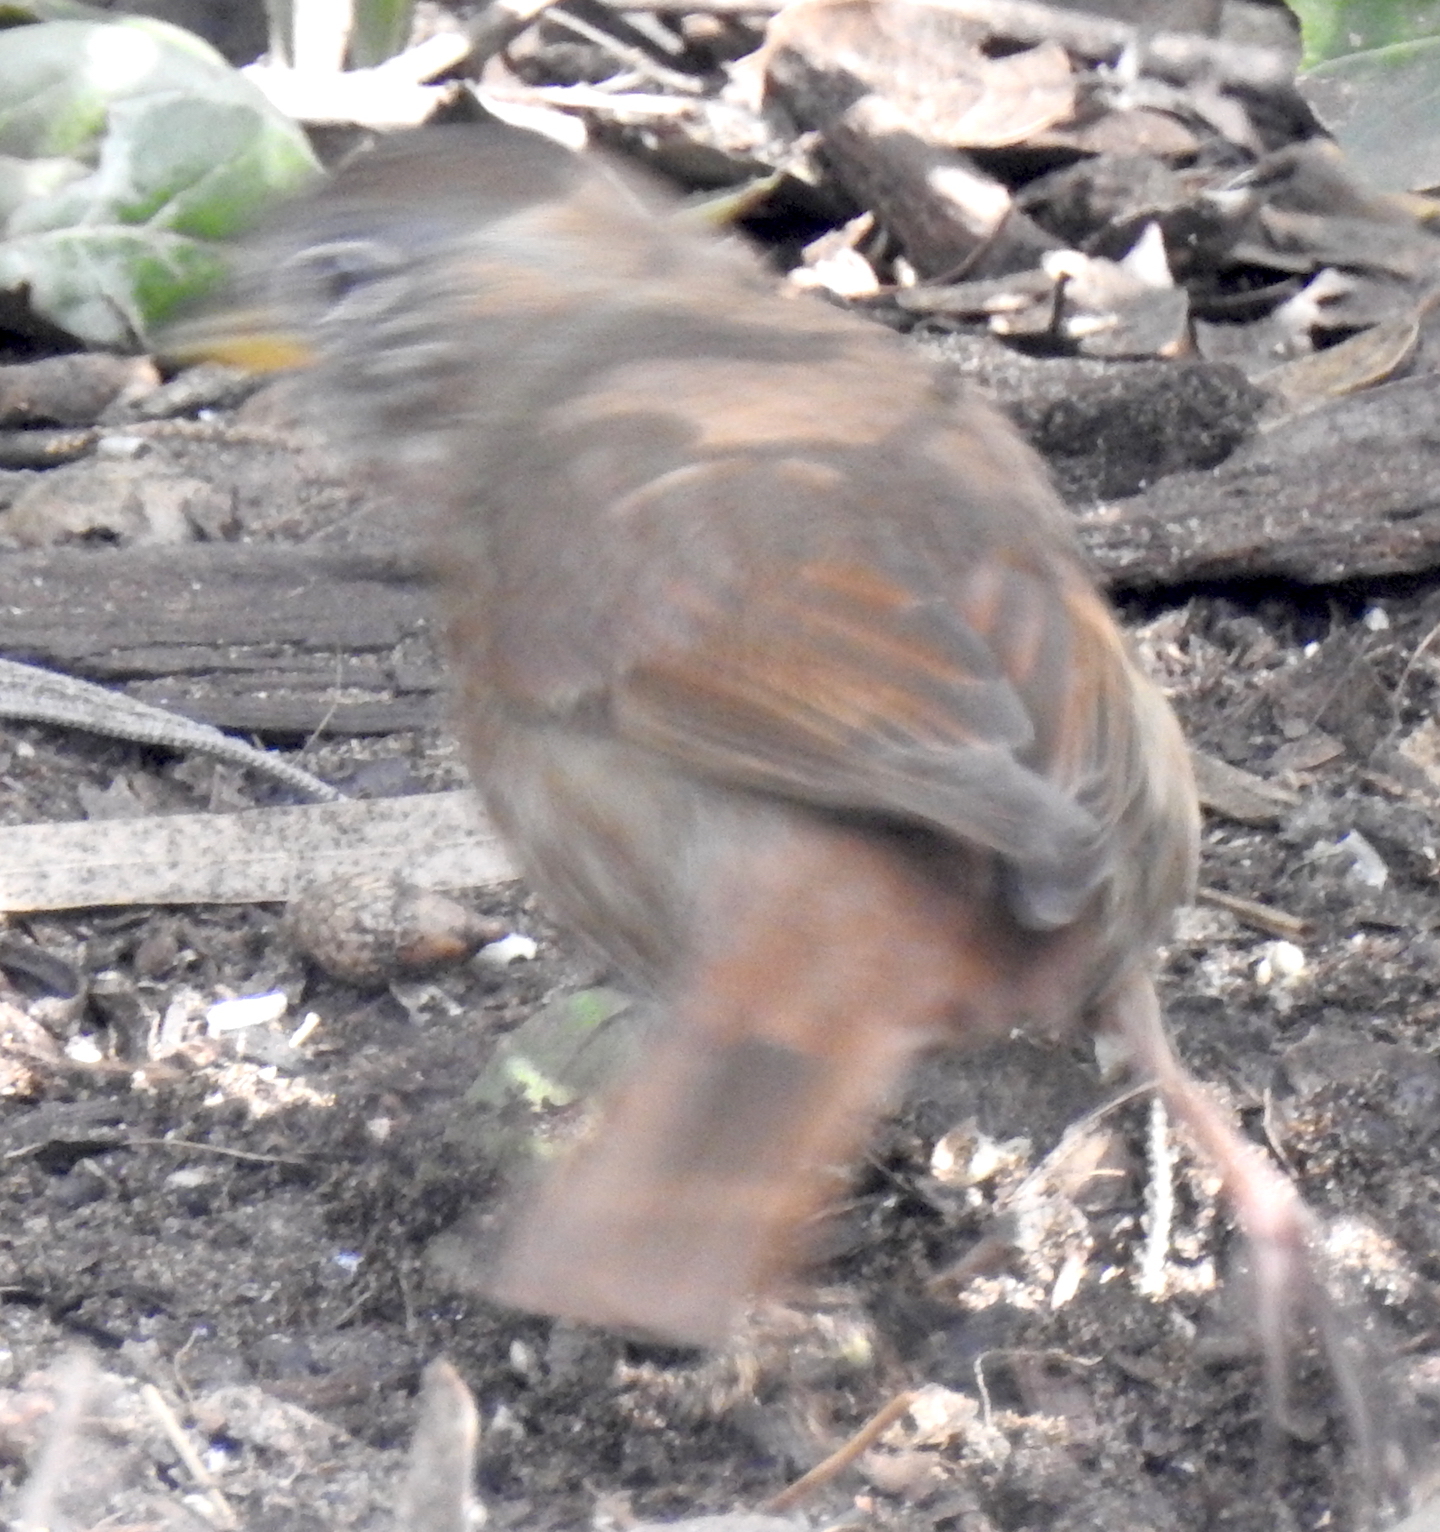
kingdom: Animalia
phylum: Chordata
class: Aves
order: Passeriformes
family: Passerellidae
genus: Passerella
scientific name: Passerella iliaca
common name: Fox sparrow
